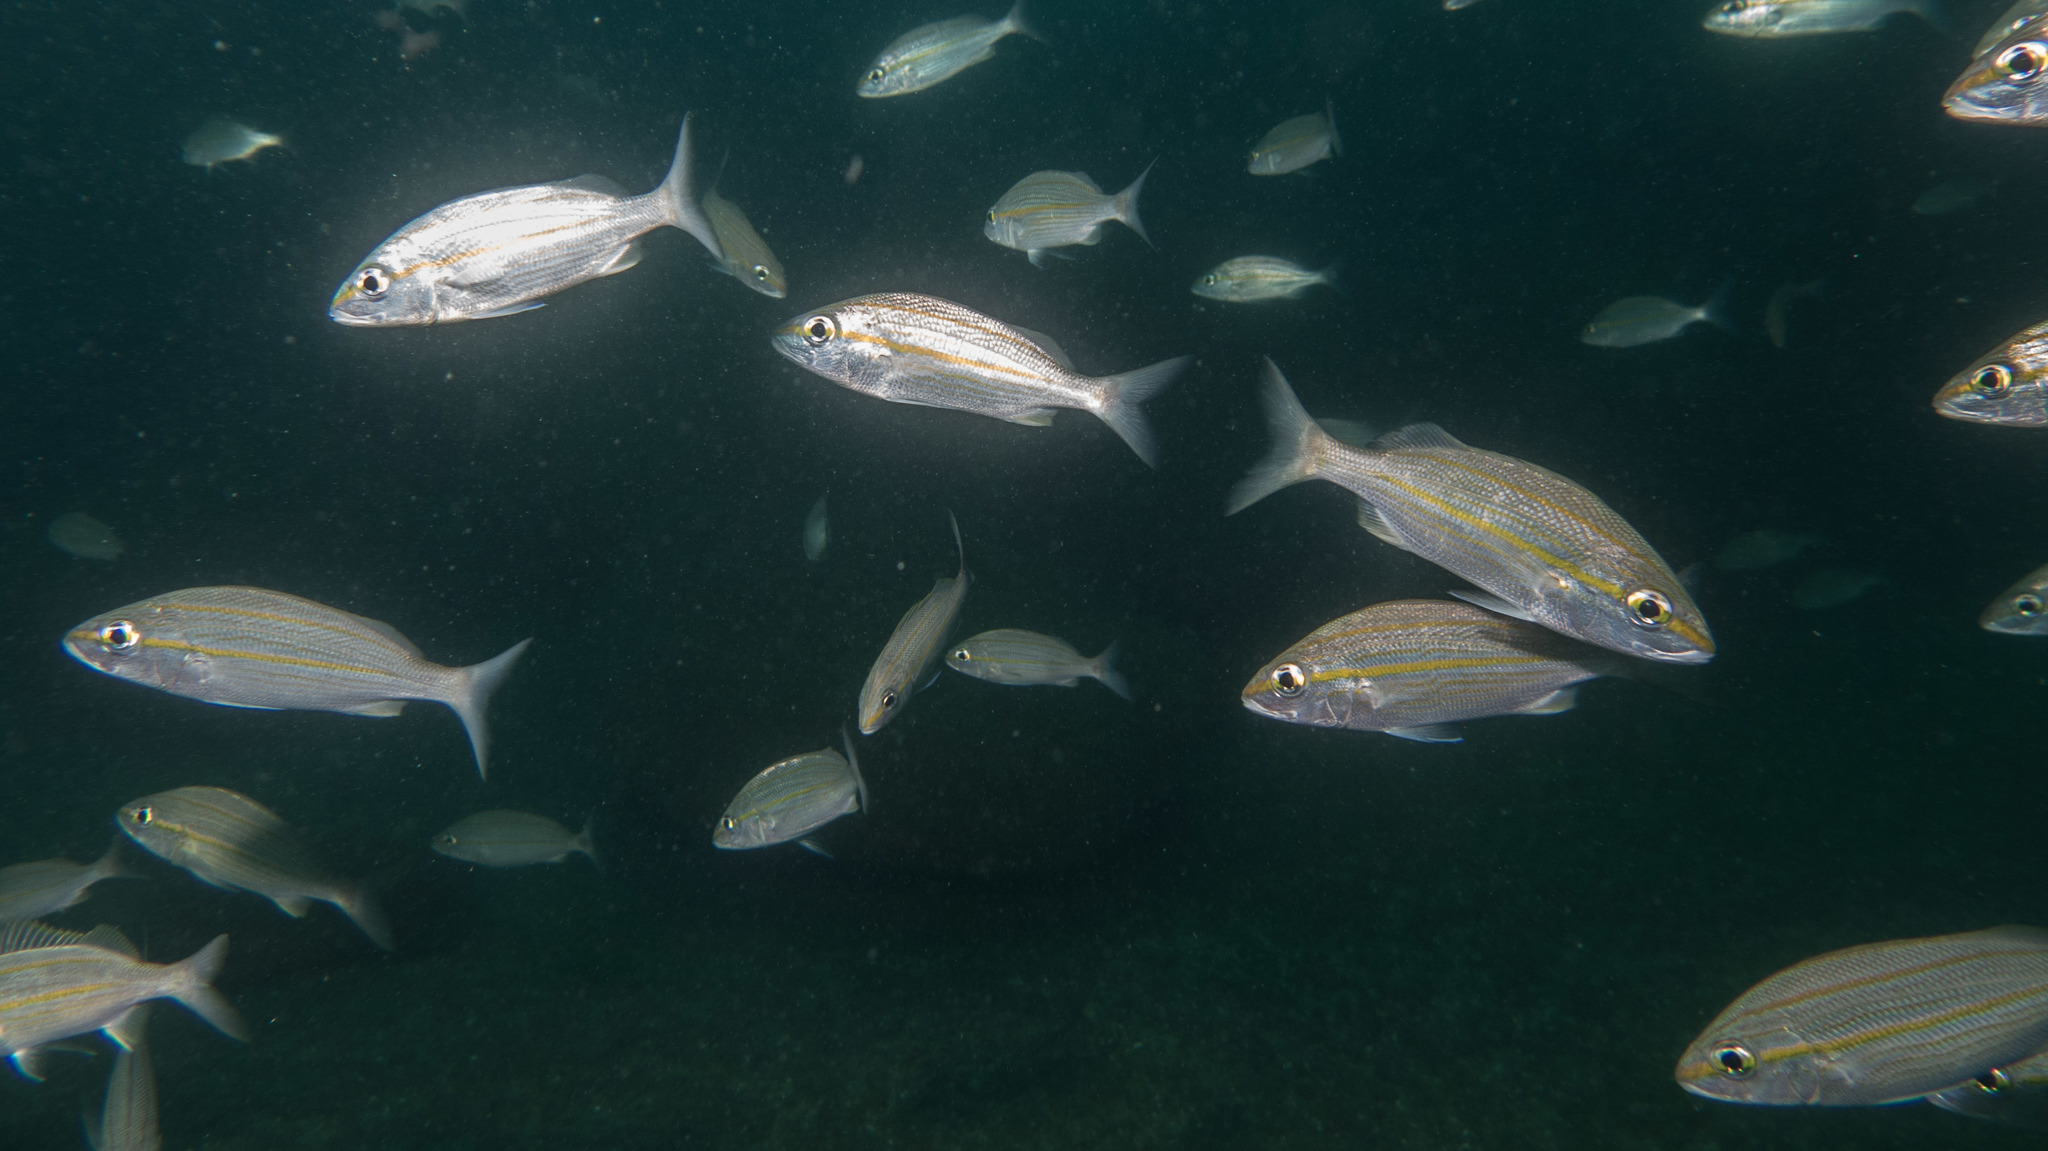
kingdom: Animalia
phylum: Chordata
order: Perciformes
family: Haemulidae
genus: Haemulon
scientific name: Haemulon aurolineatum
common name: Tomtate
